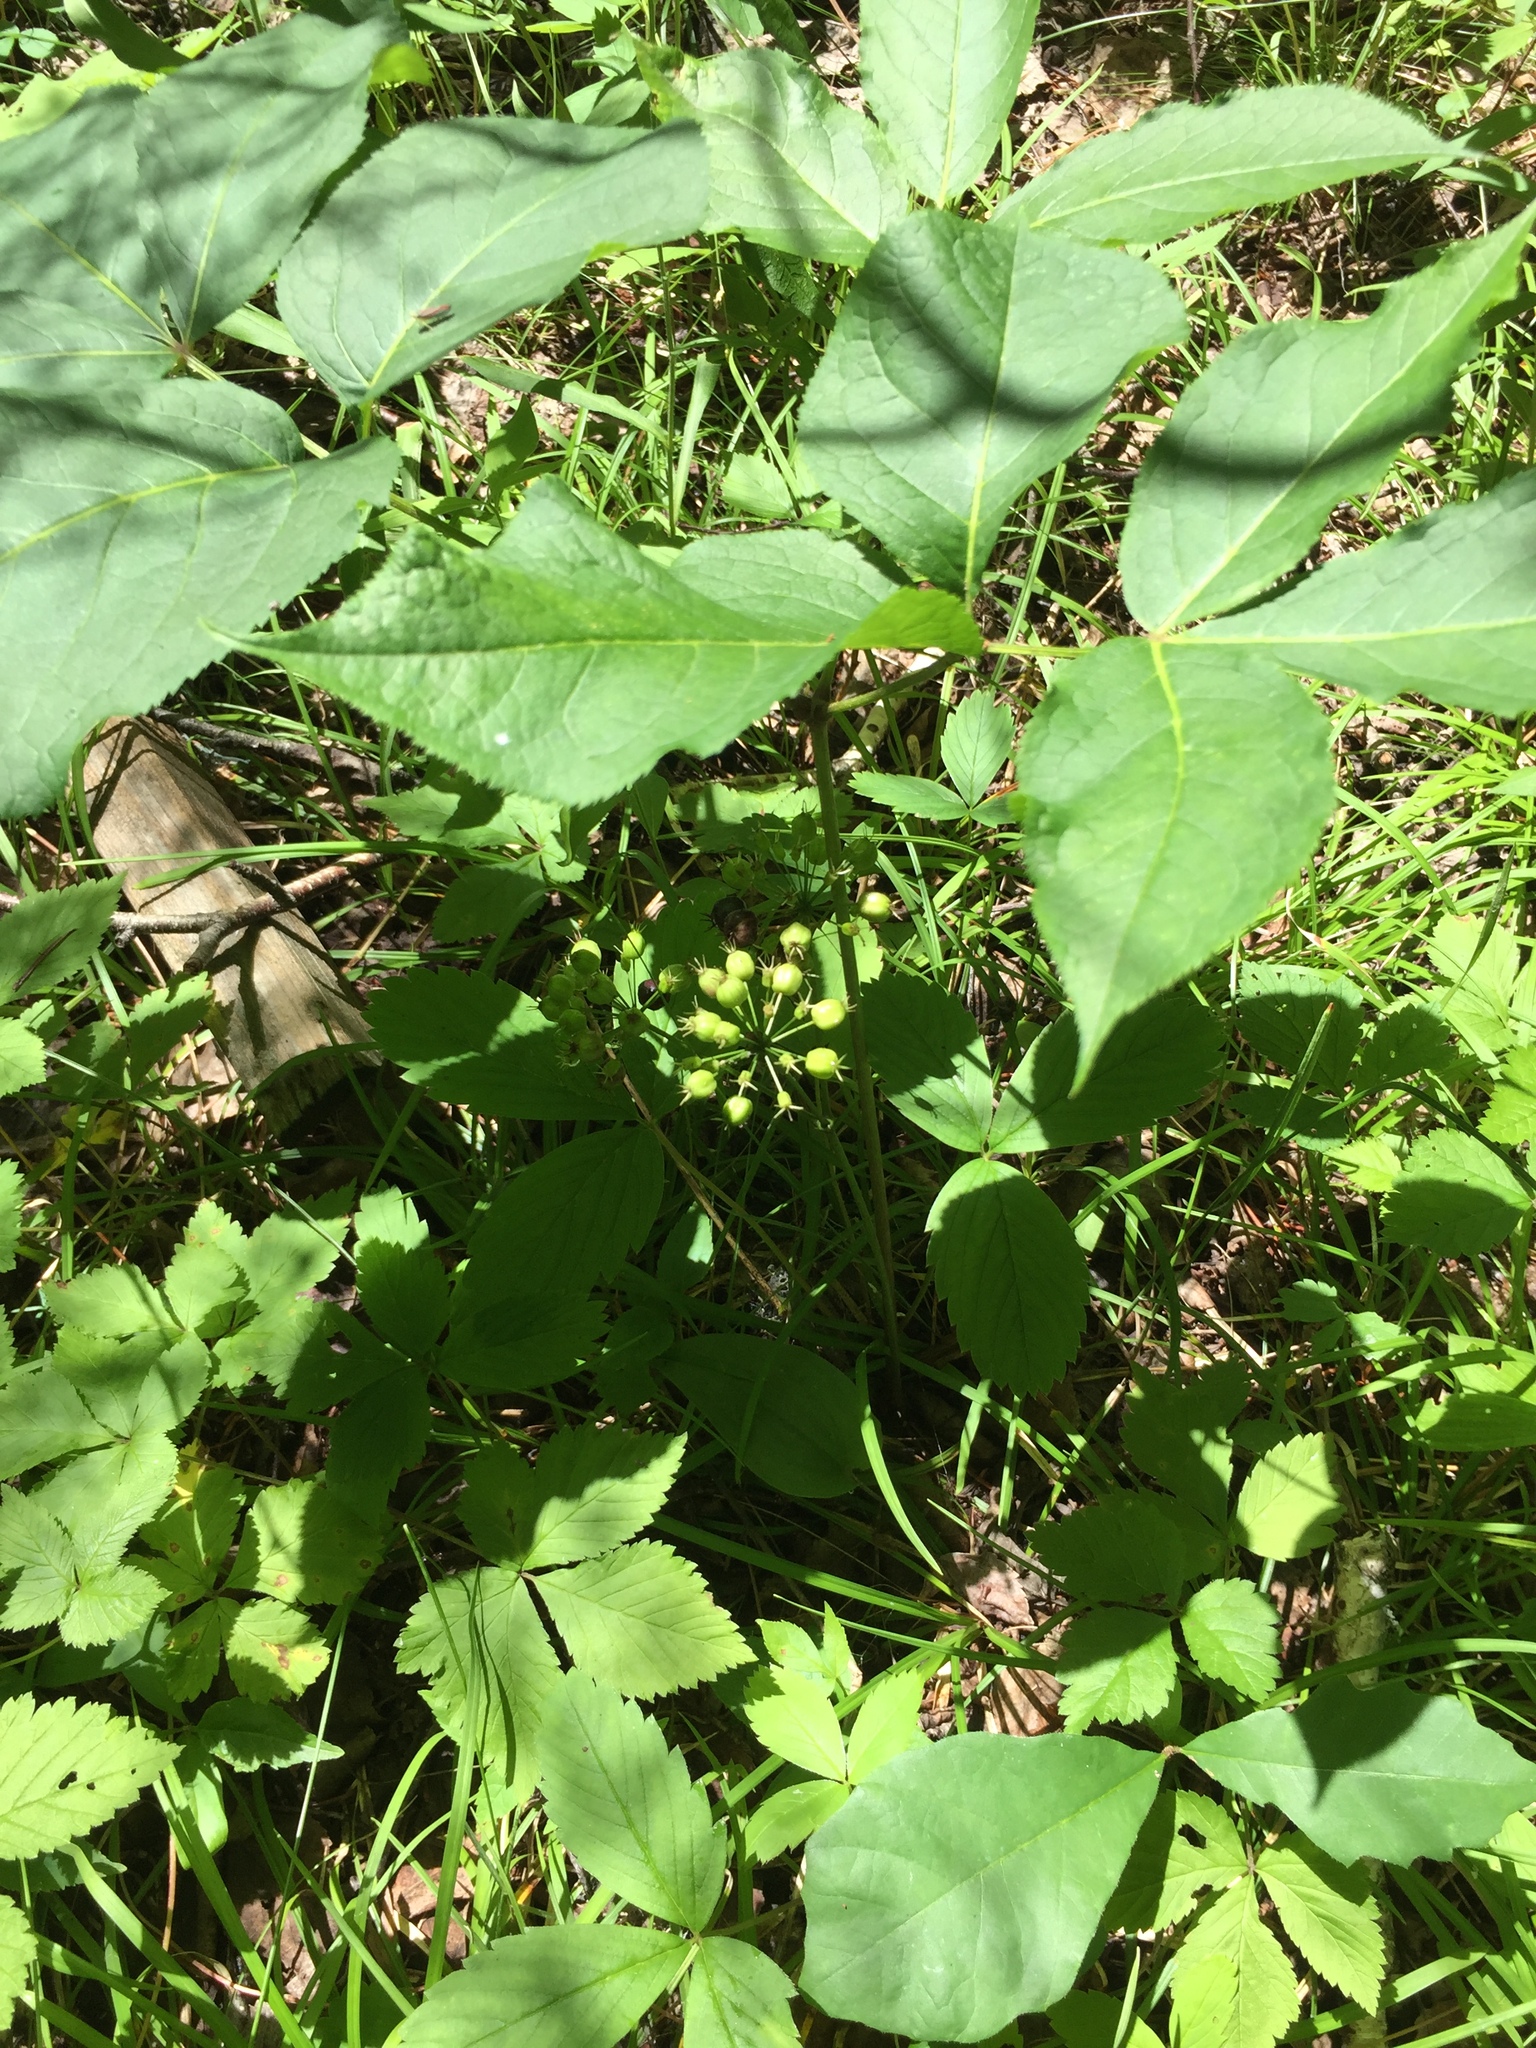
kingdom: Plantae
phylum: Tracheophyta
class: Magnoliopsida
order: Apiales
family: Araliaceae
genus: Aralia
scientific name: Aralia nudicaulis
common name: Wild sarsaparilla
